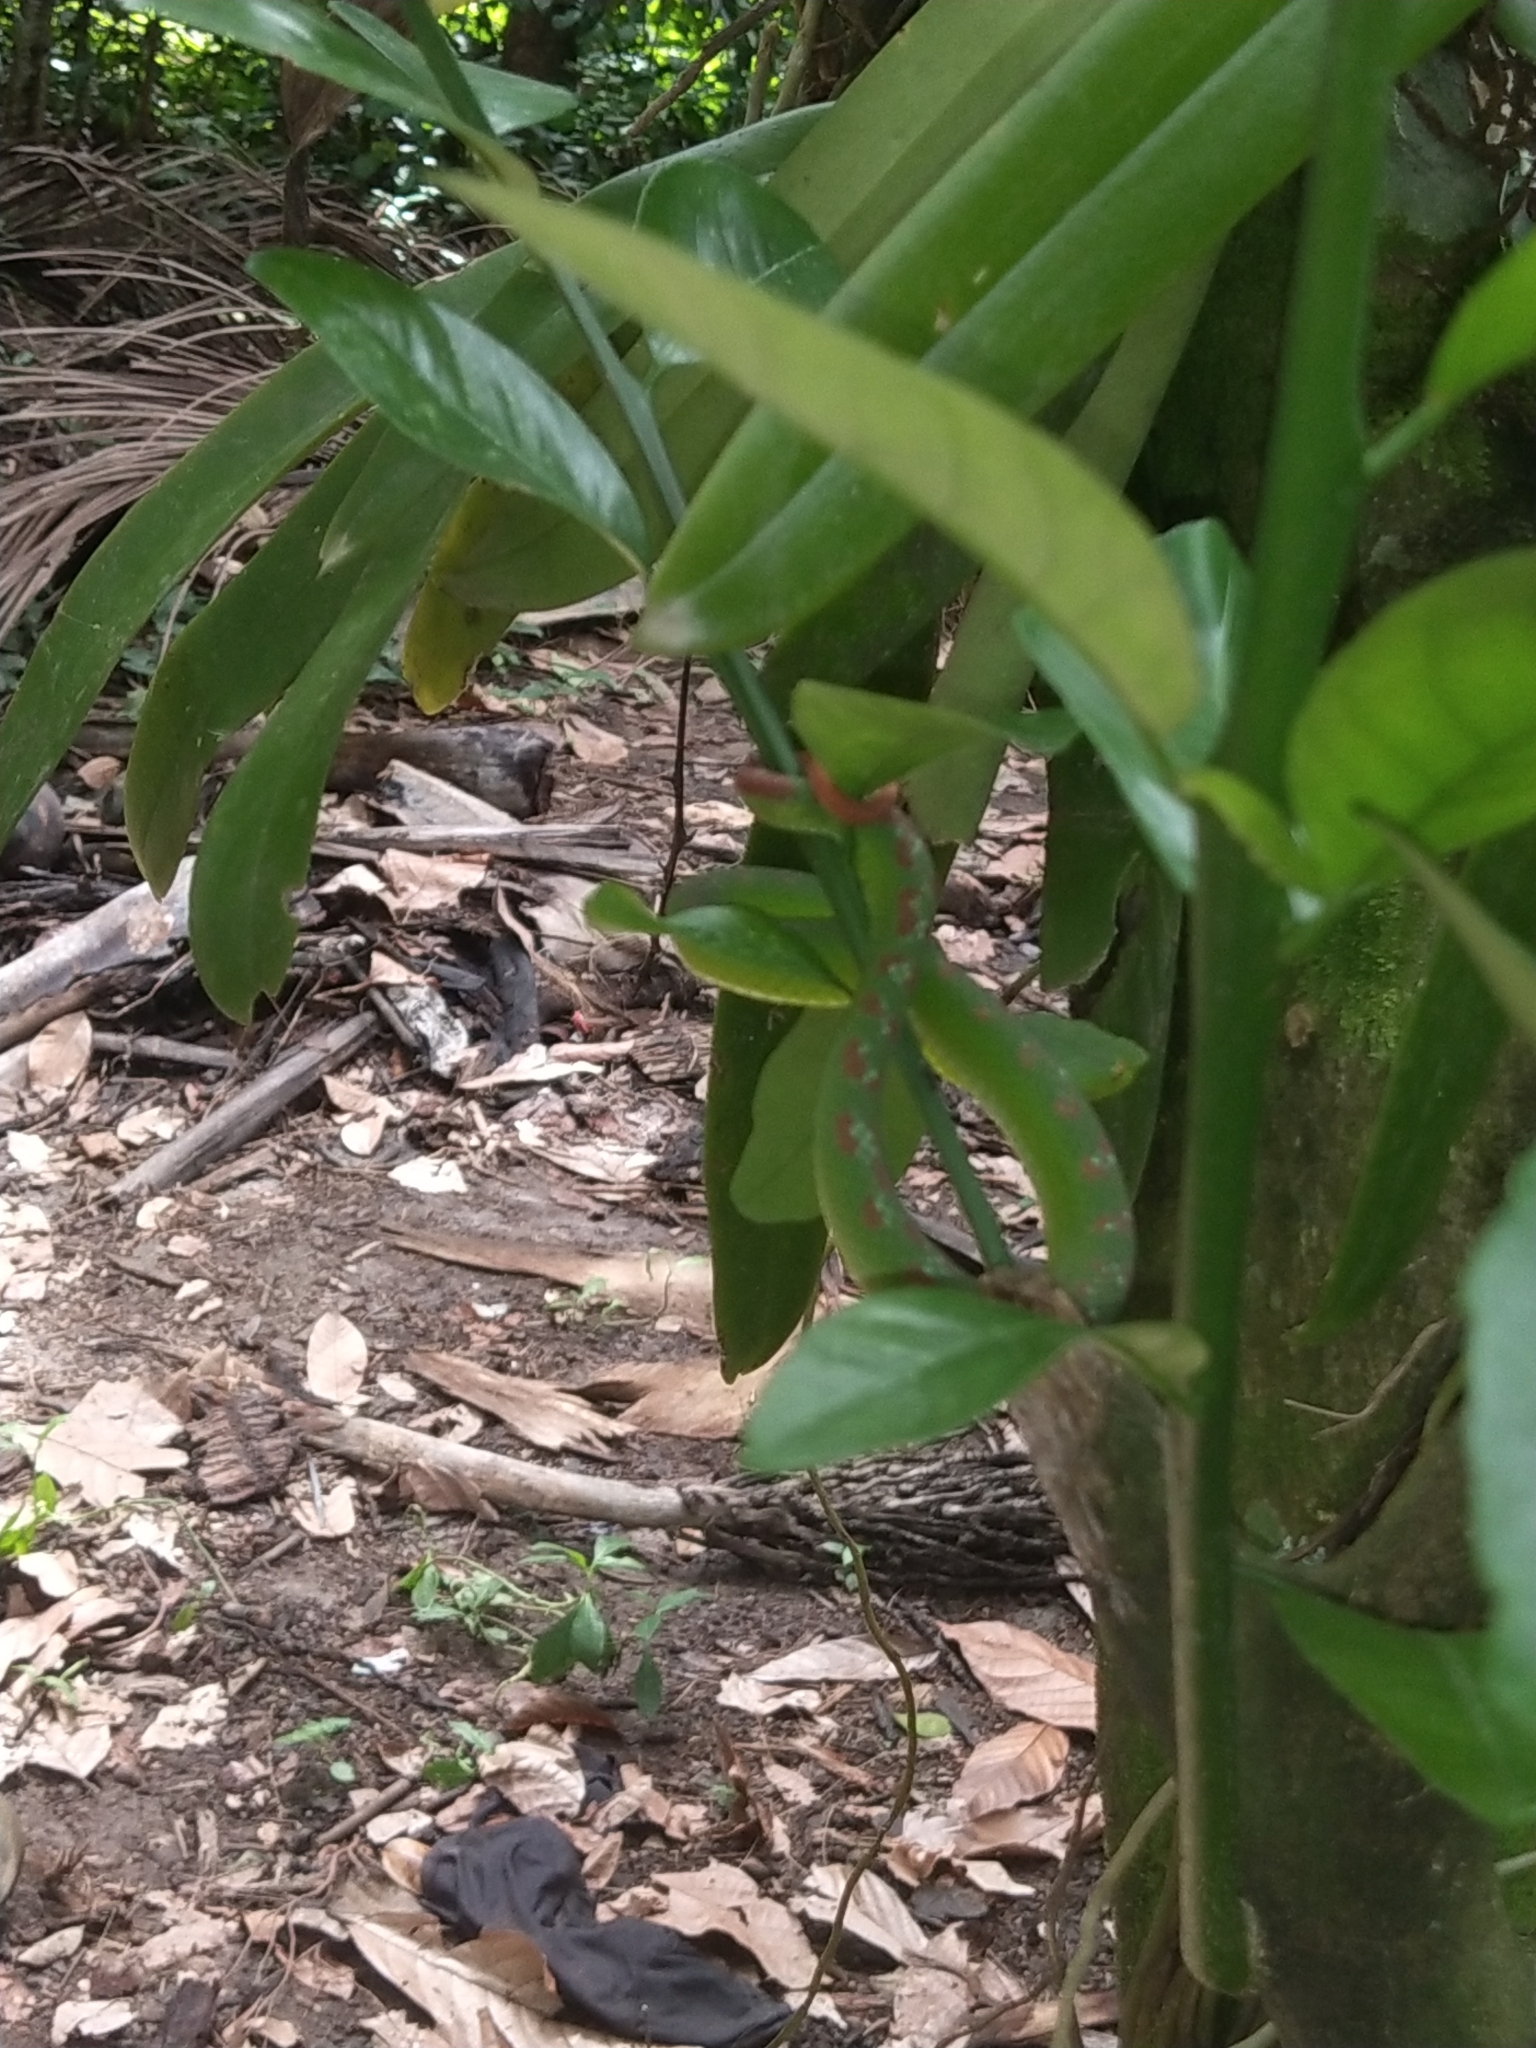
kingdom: Animalia
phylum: Chordata
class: Squamata
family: Viperidae
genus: Tropidolaemus
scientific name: Tropidolaemus subannulatus
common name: North philippine temple pitviper
